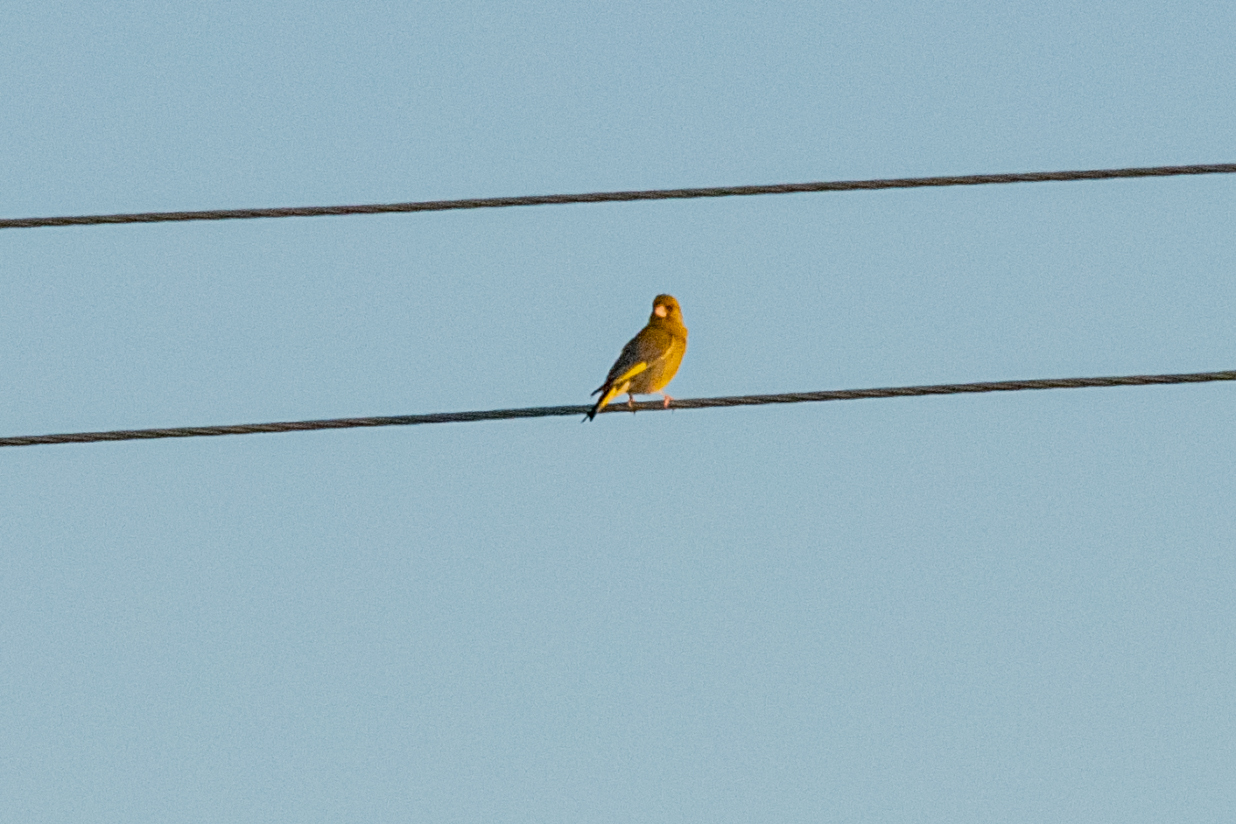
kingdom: Plantae
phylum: Tracheophyta
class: Liliopsida
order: Poales
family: Poaceae
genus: Chloris
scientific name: Chloris chloris
